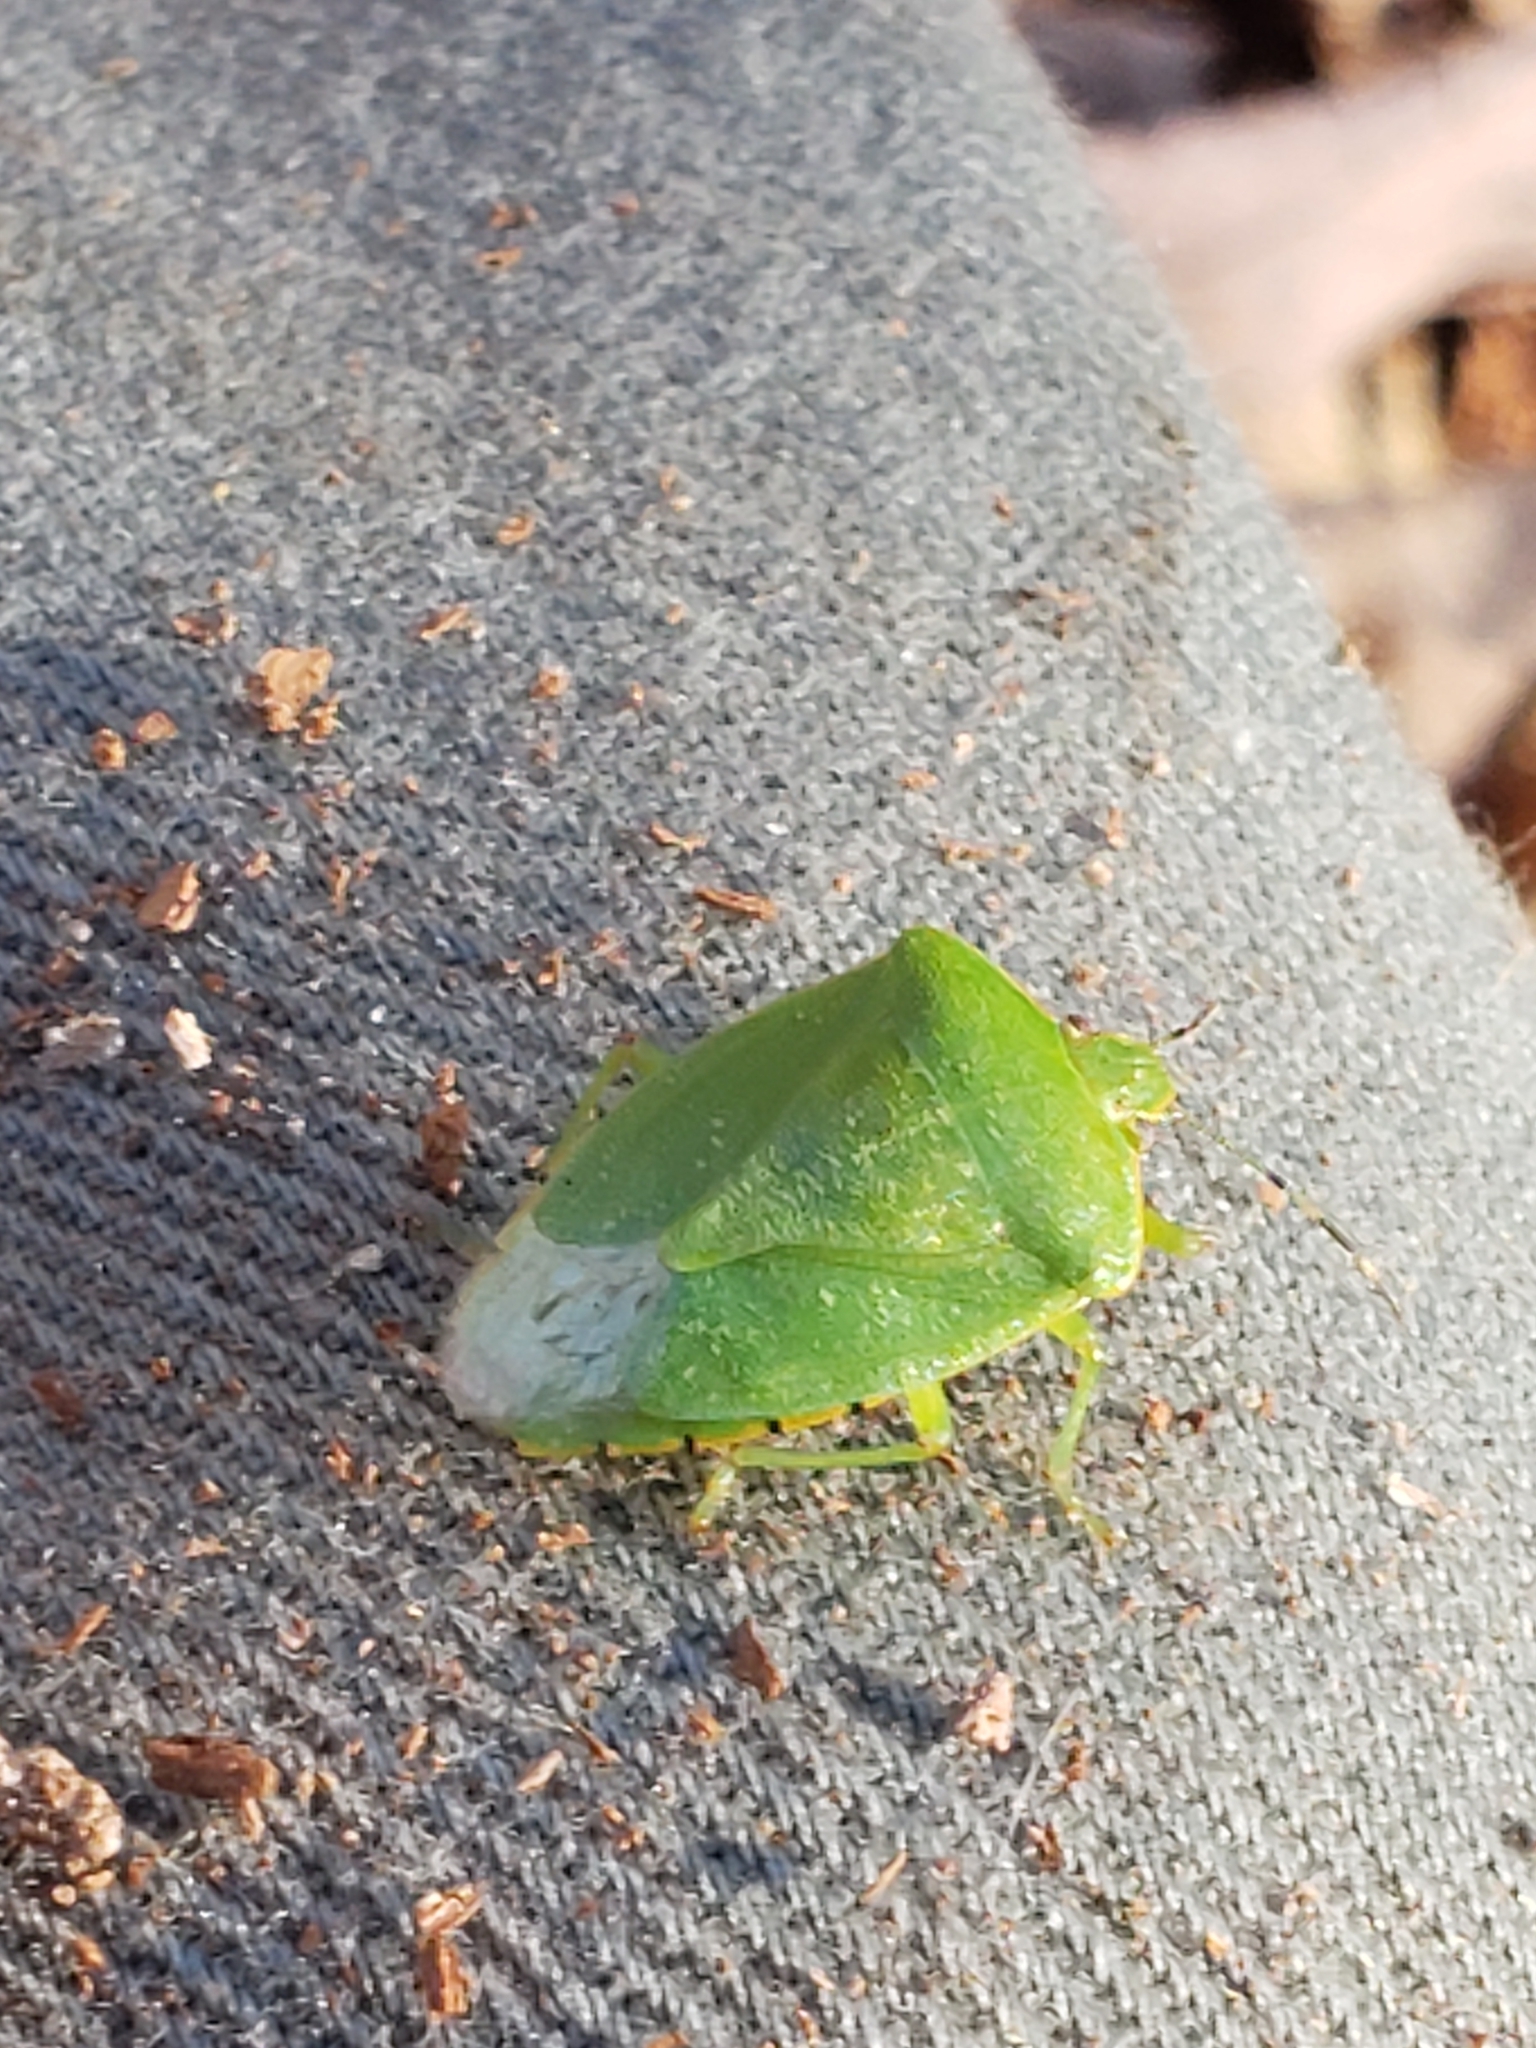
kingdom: Animalia
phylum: Arthropoda
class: Insecta
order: Hemiptera
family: Pentatomidae
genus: Chinavia
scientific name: Chinavia hilaris
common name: Green stink bug
